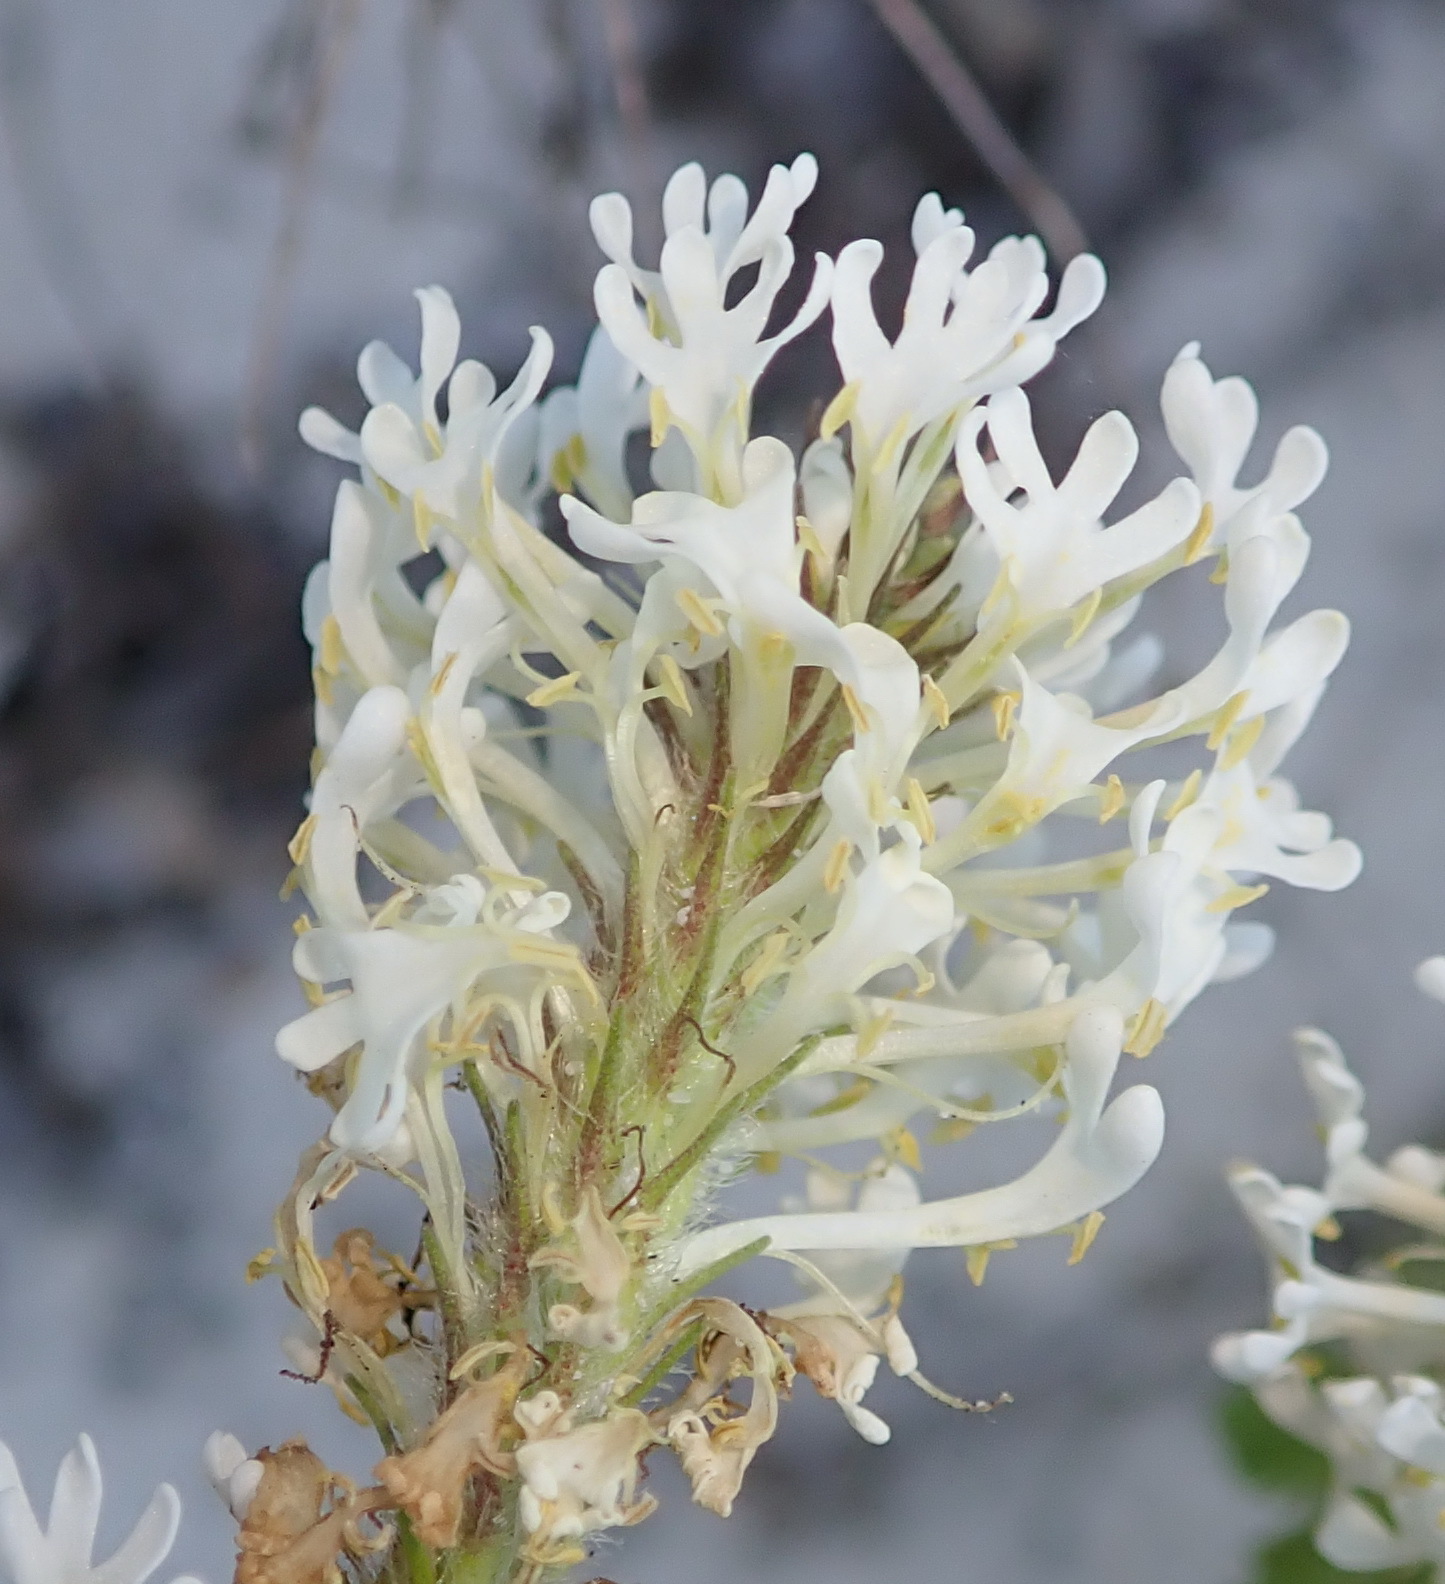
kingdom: Plantae
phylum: Tracheophyta
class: Magnoliopsida
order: Lamiales
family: Scrophulariaceae
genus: Dischisma
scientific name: Dischisma ciliatum
